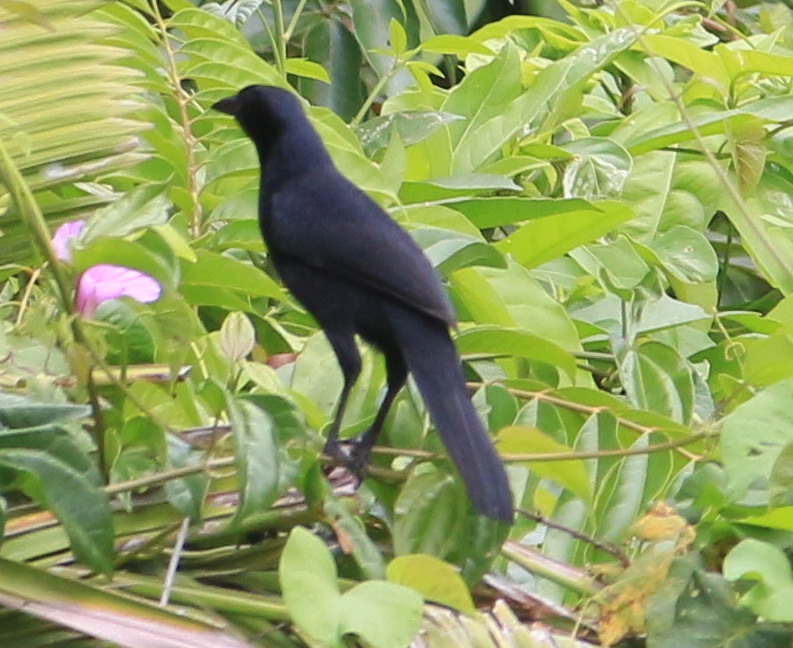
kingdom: Animalia
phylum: Chordata
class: Aves
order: Passeriformes
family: Icteridae
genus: Dives
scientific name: Dives dives
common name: Melodious blackbird
